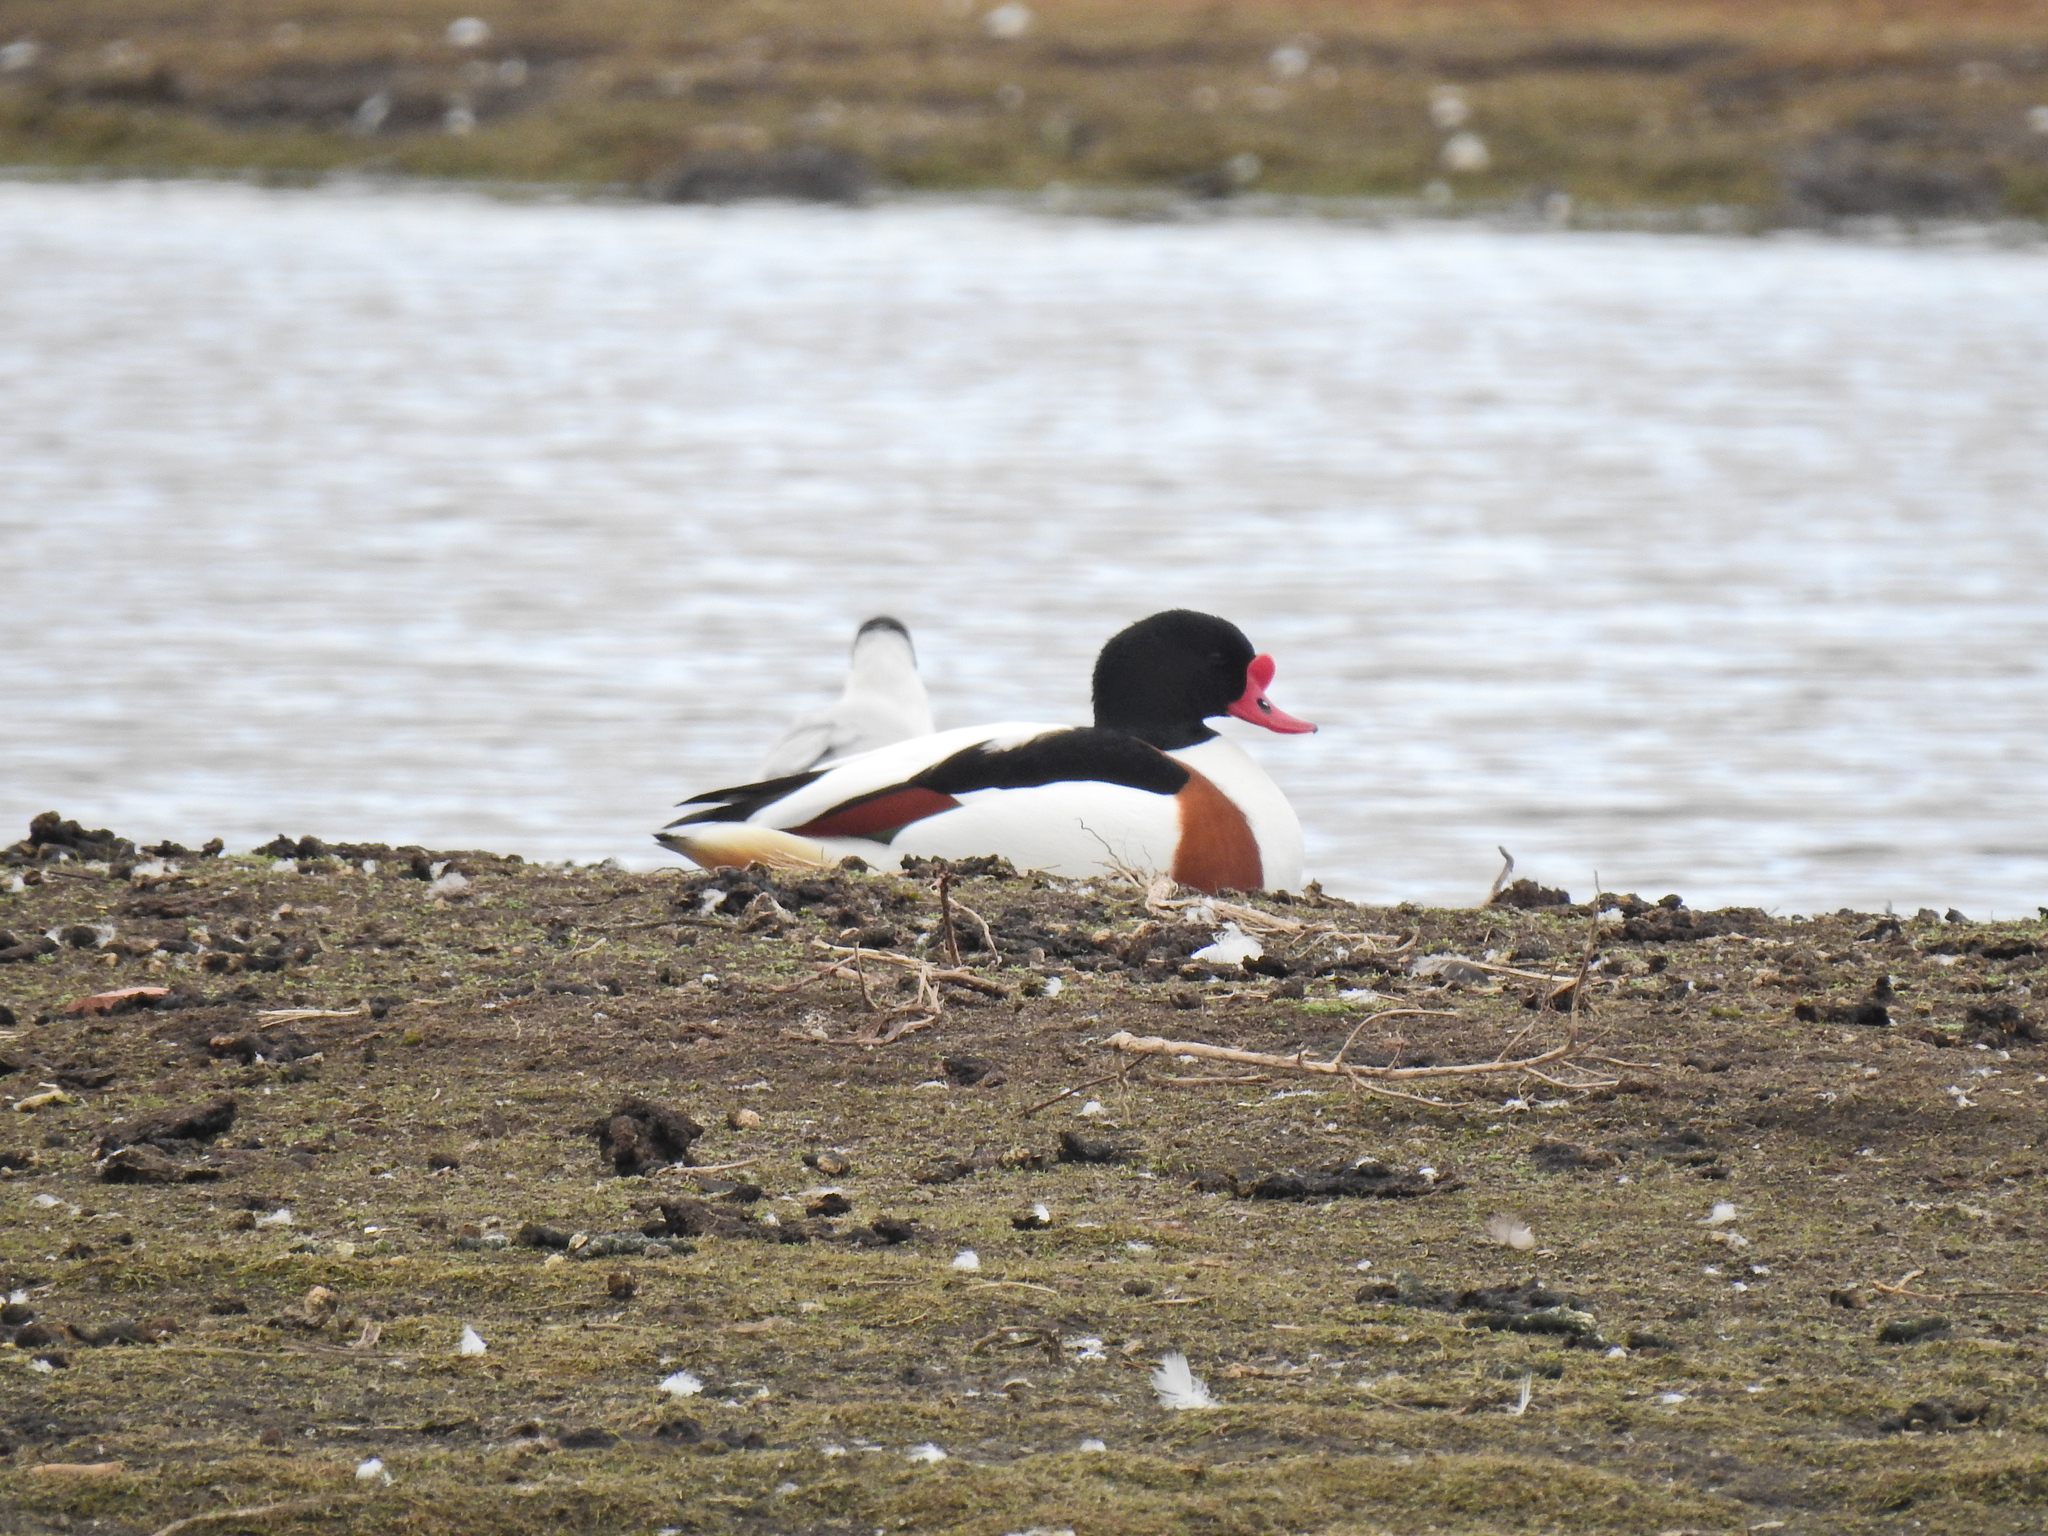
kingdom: Animalia
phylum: Chordata
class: Aves
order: Anseriformes
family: Anatidae
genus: Tadorna
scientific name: Tadorna tadorna
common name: Common shelduck
